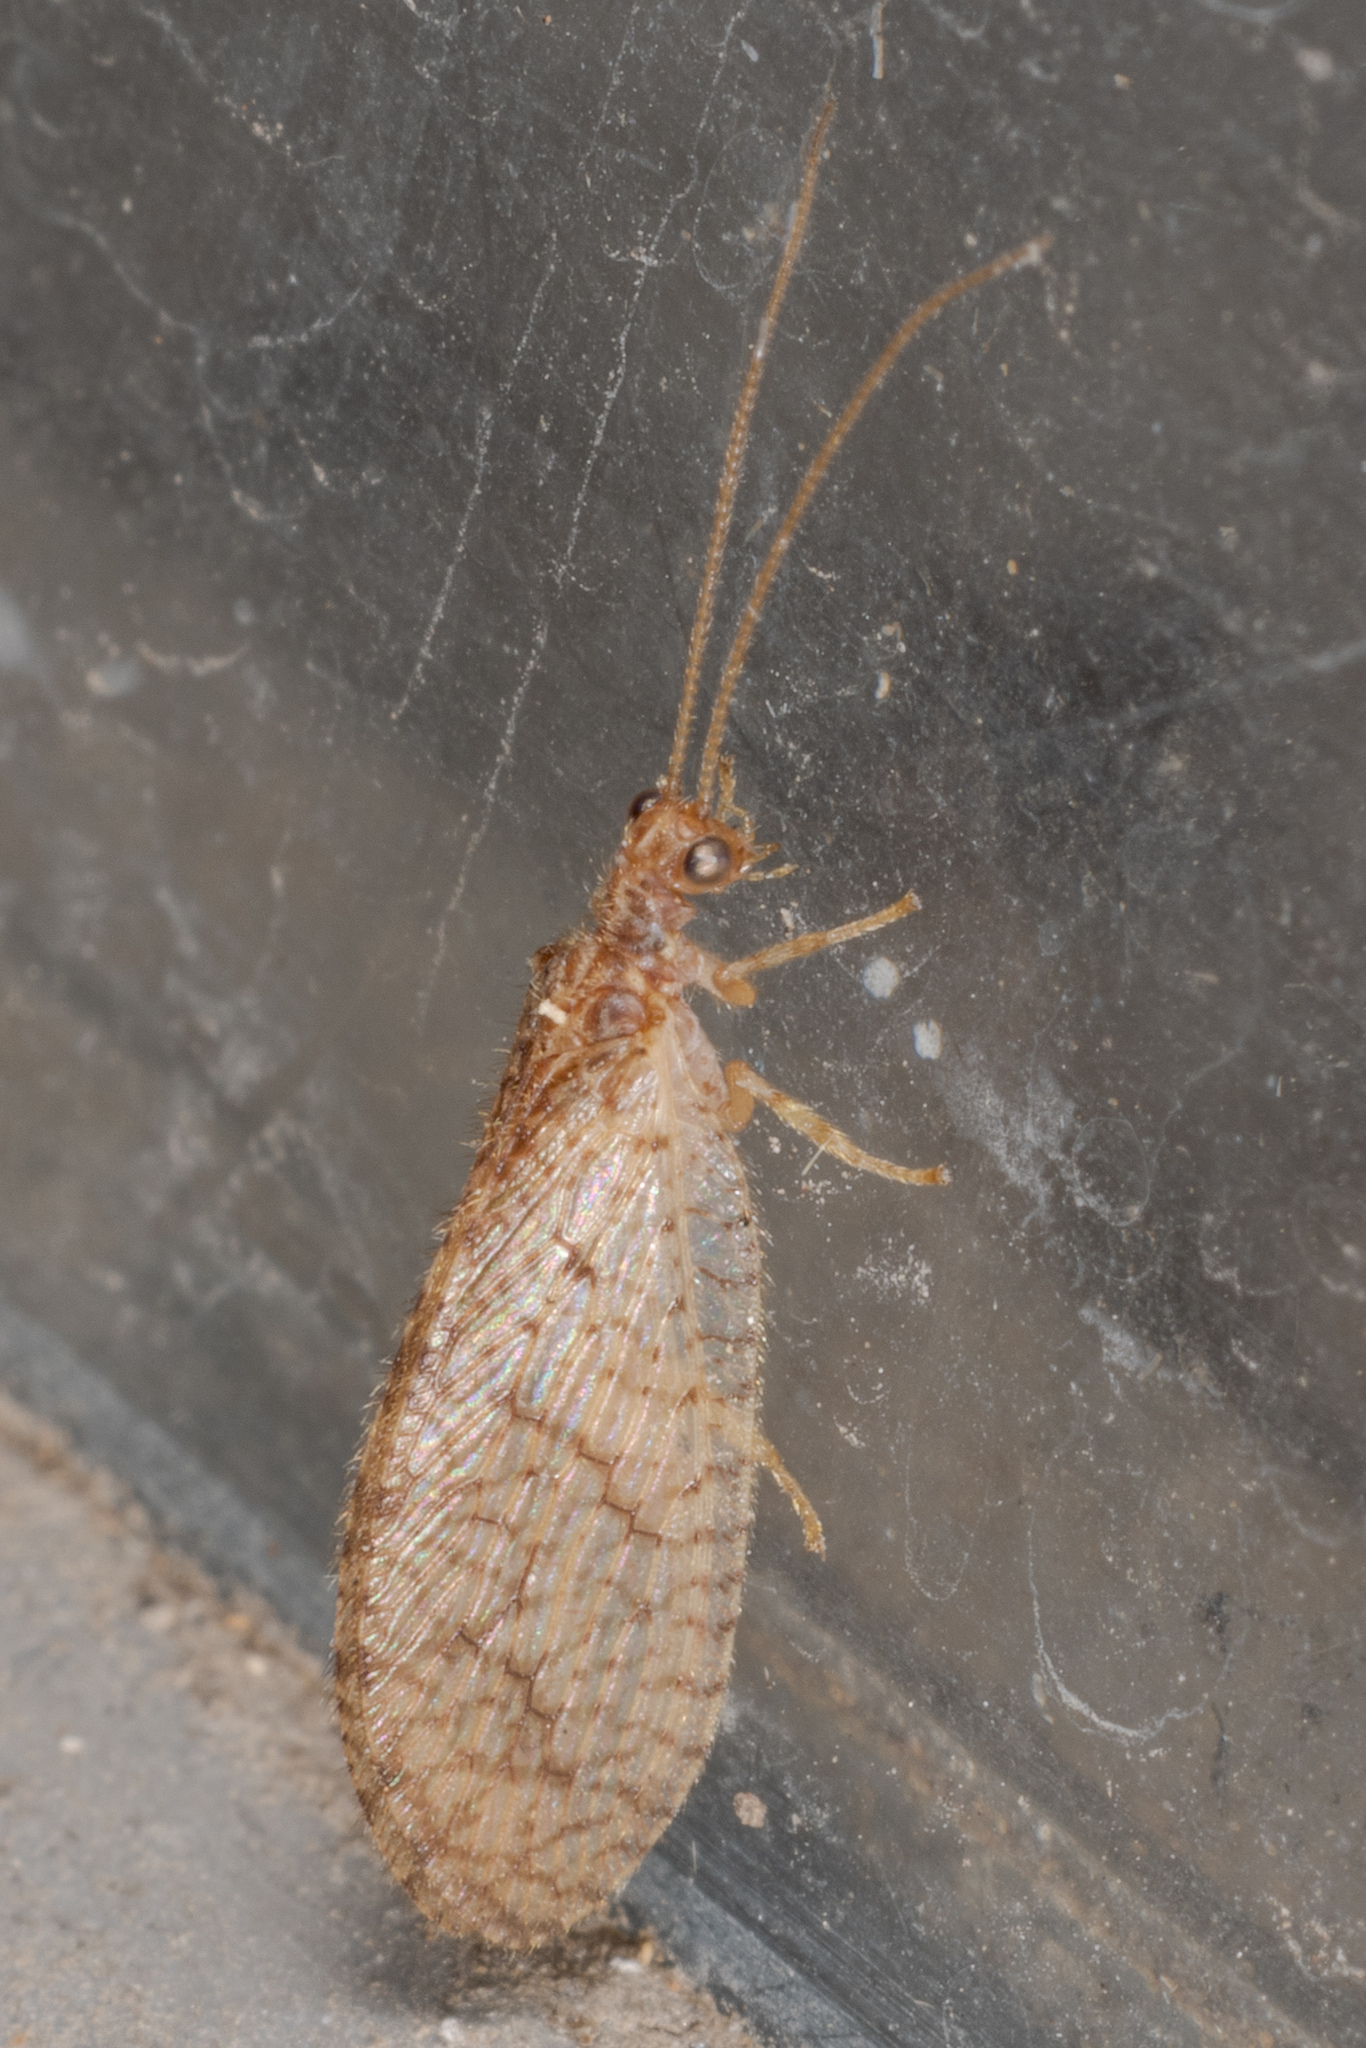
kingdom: Animalia
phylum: Arthropoda
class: Insecta
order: Neuroptera
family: Hemerobiidae
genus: Micromus
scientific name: Micromus posticus
